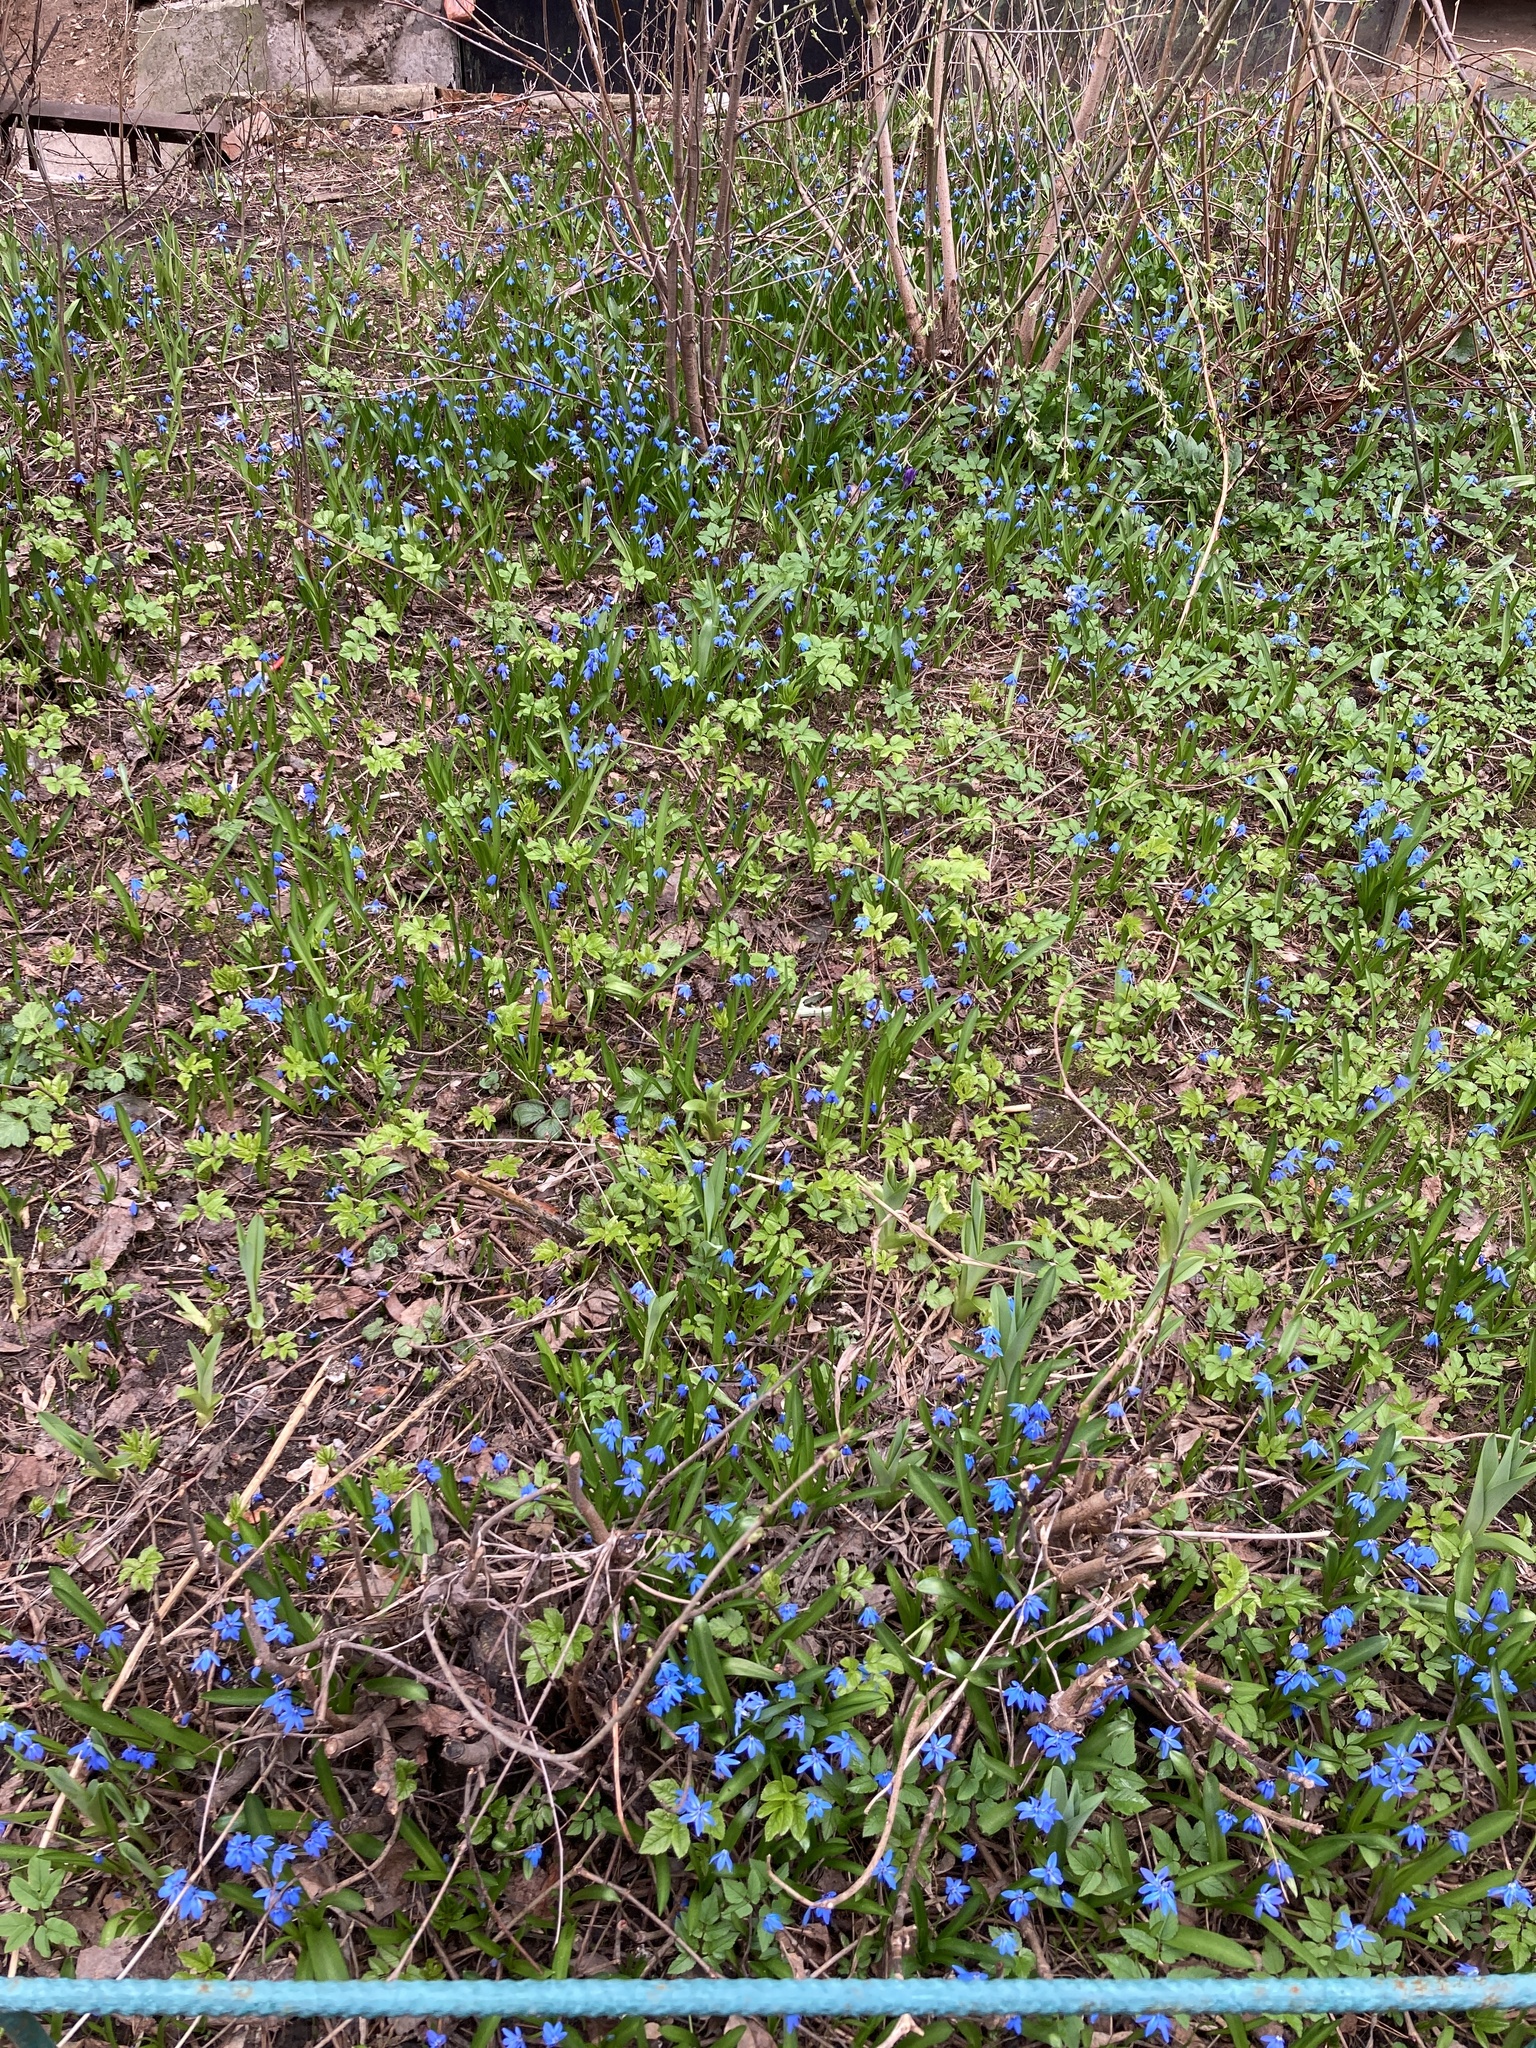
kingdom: Plantae
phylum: Tracheophyta
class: Liliopsida
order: Asparagales
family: Asparagaceae
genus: Scilla
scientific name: Scilla siberica
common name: Siberian squill
